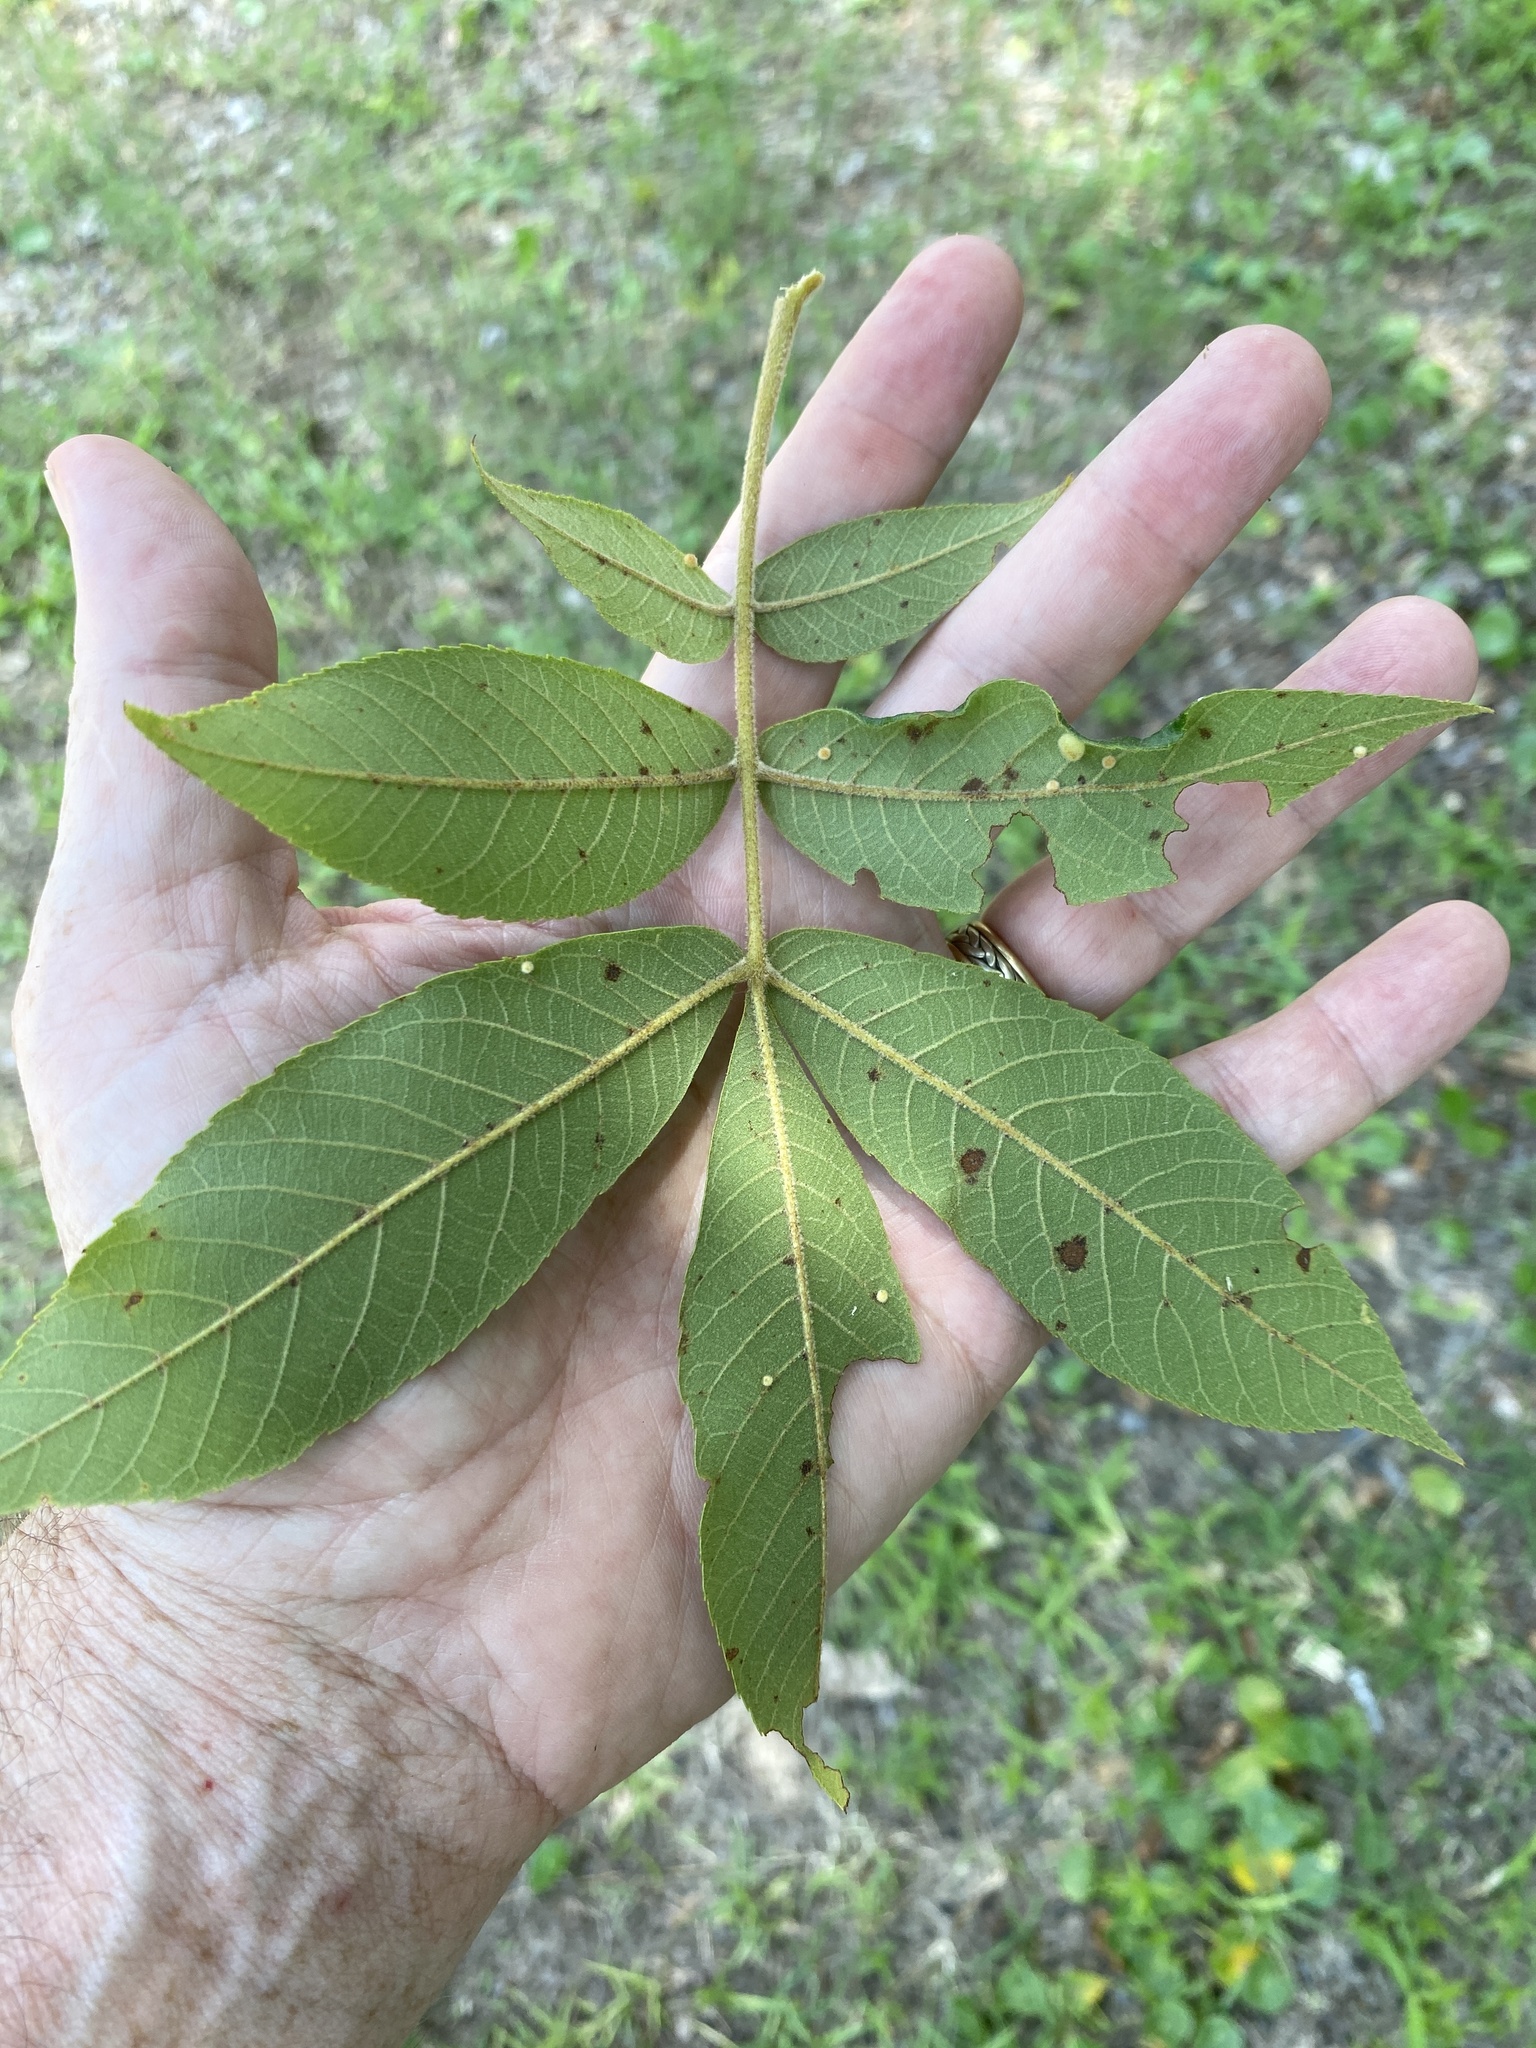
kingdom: Plantae
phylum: Tracheophyta
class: Magnoliopsida
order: Fagales
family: Juglandaceae
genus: Carya
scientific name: Carya pallida
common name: Sand hickory
